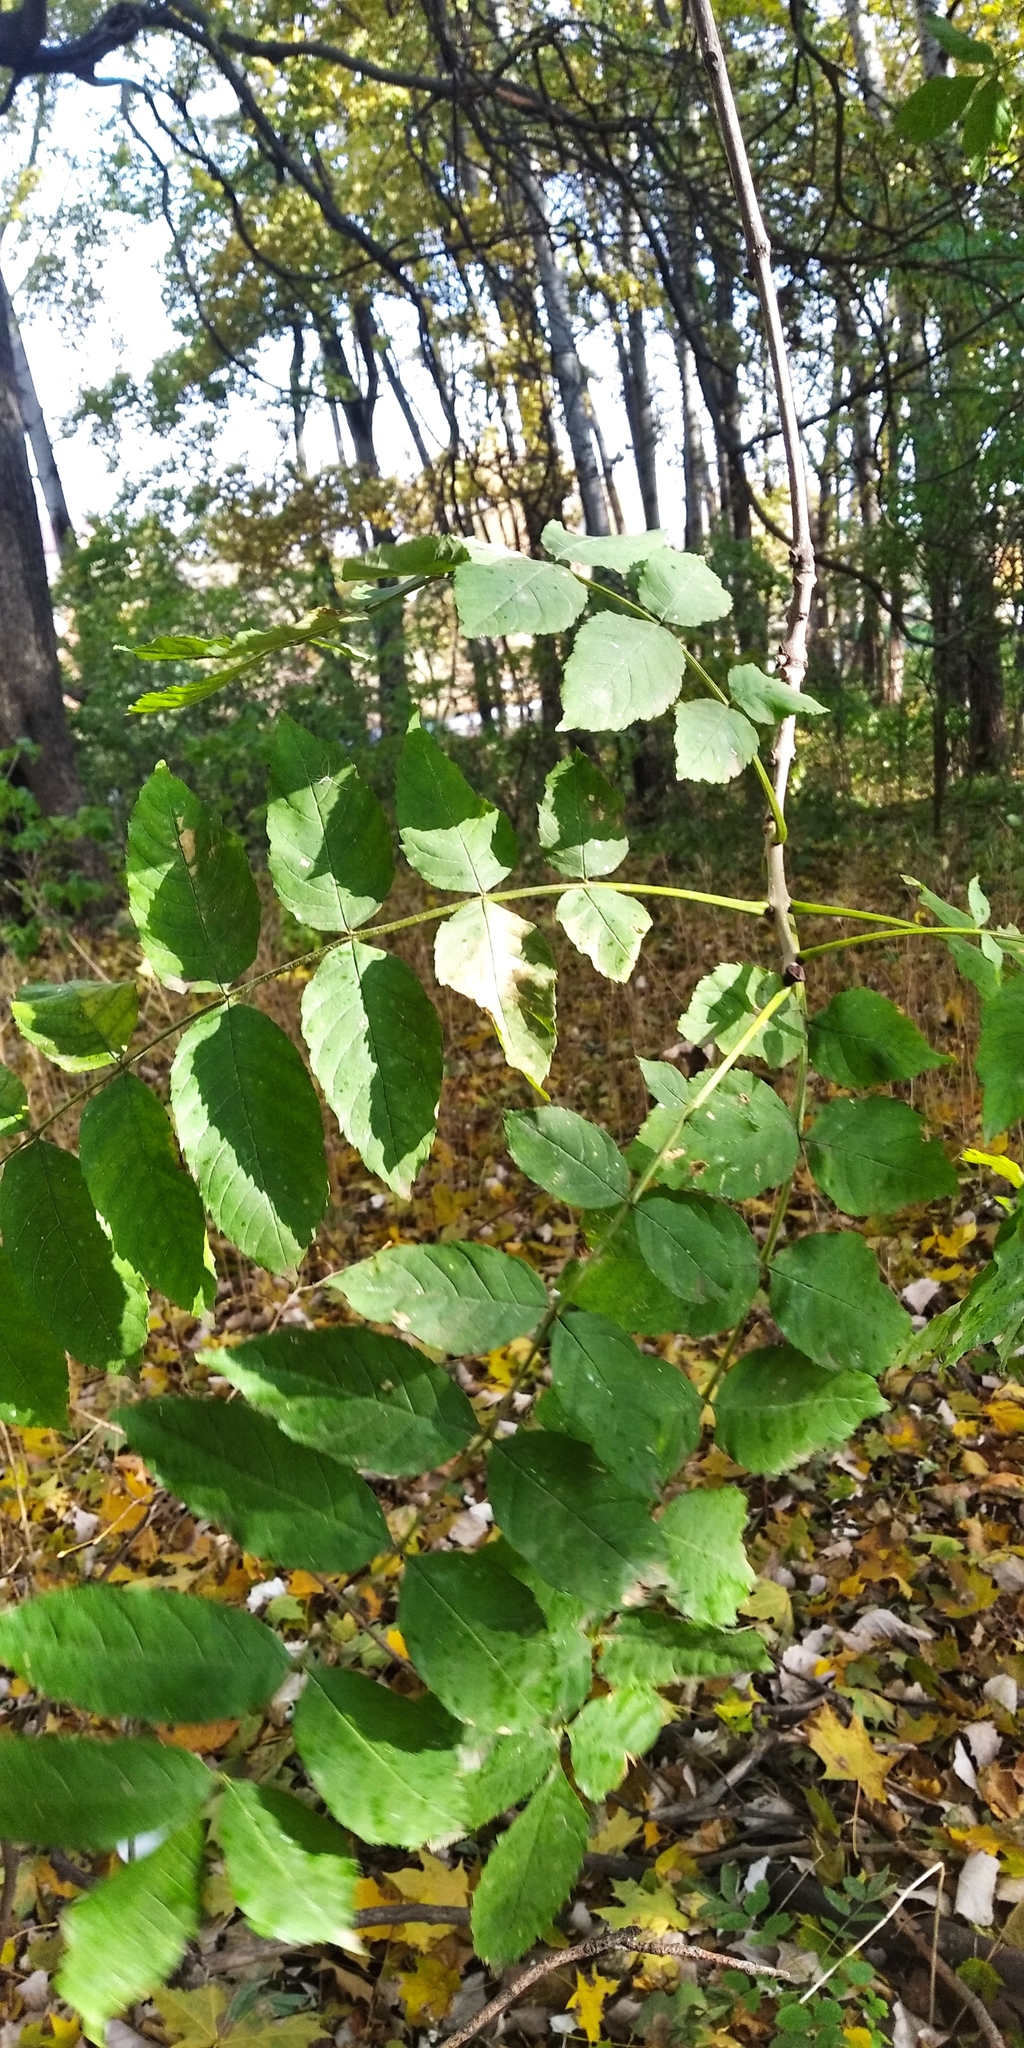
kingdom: Plantae
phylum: Tracheophyta
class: Magnoliopsida
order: Lamiales
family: Oleaceae
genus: Fraxinus
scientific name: Fraxinus excelsior
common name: European ash
